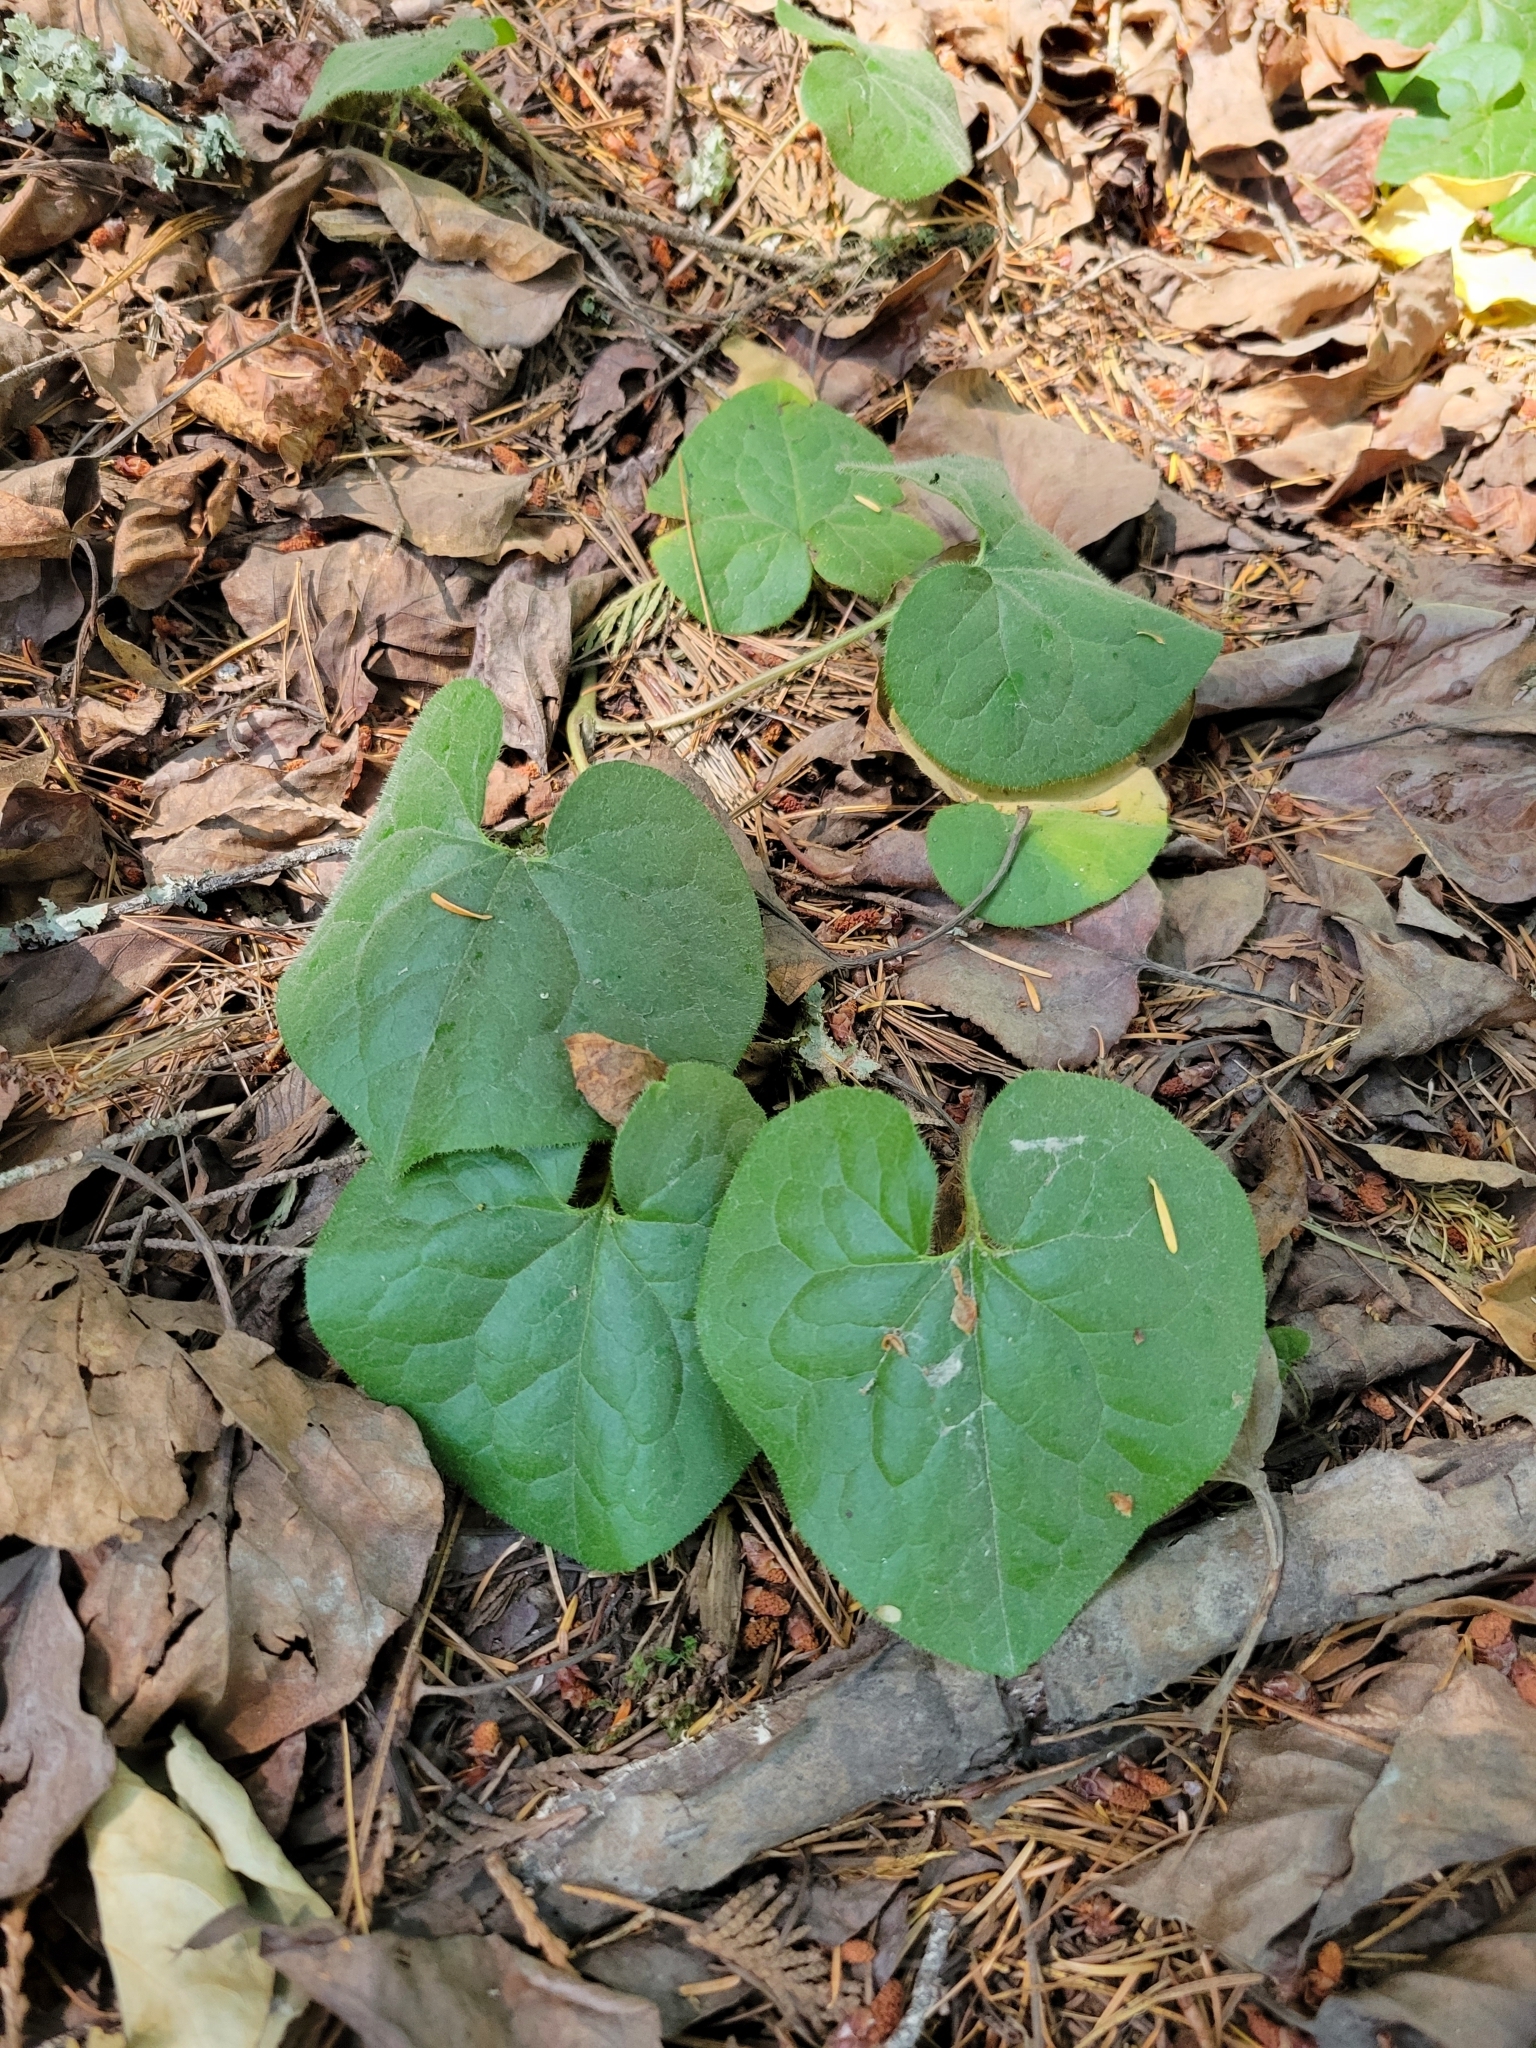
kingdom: Plantae
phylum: Tracheophyta
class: Magnoliopsida
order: Piperales
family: Aristolochiaceae
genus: Asarum
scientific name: Asarum caudatum
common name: Wild ginger
